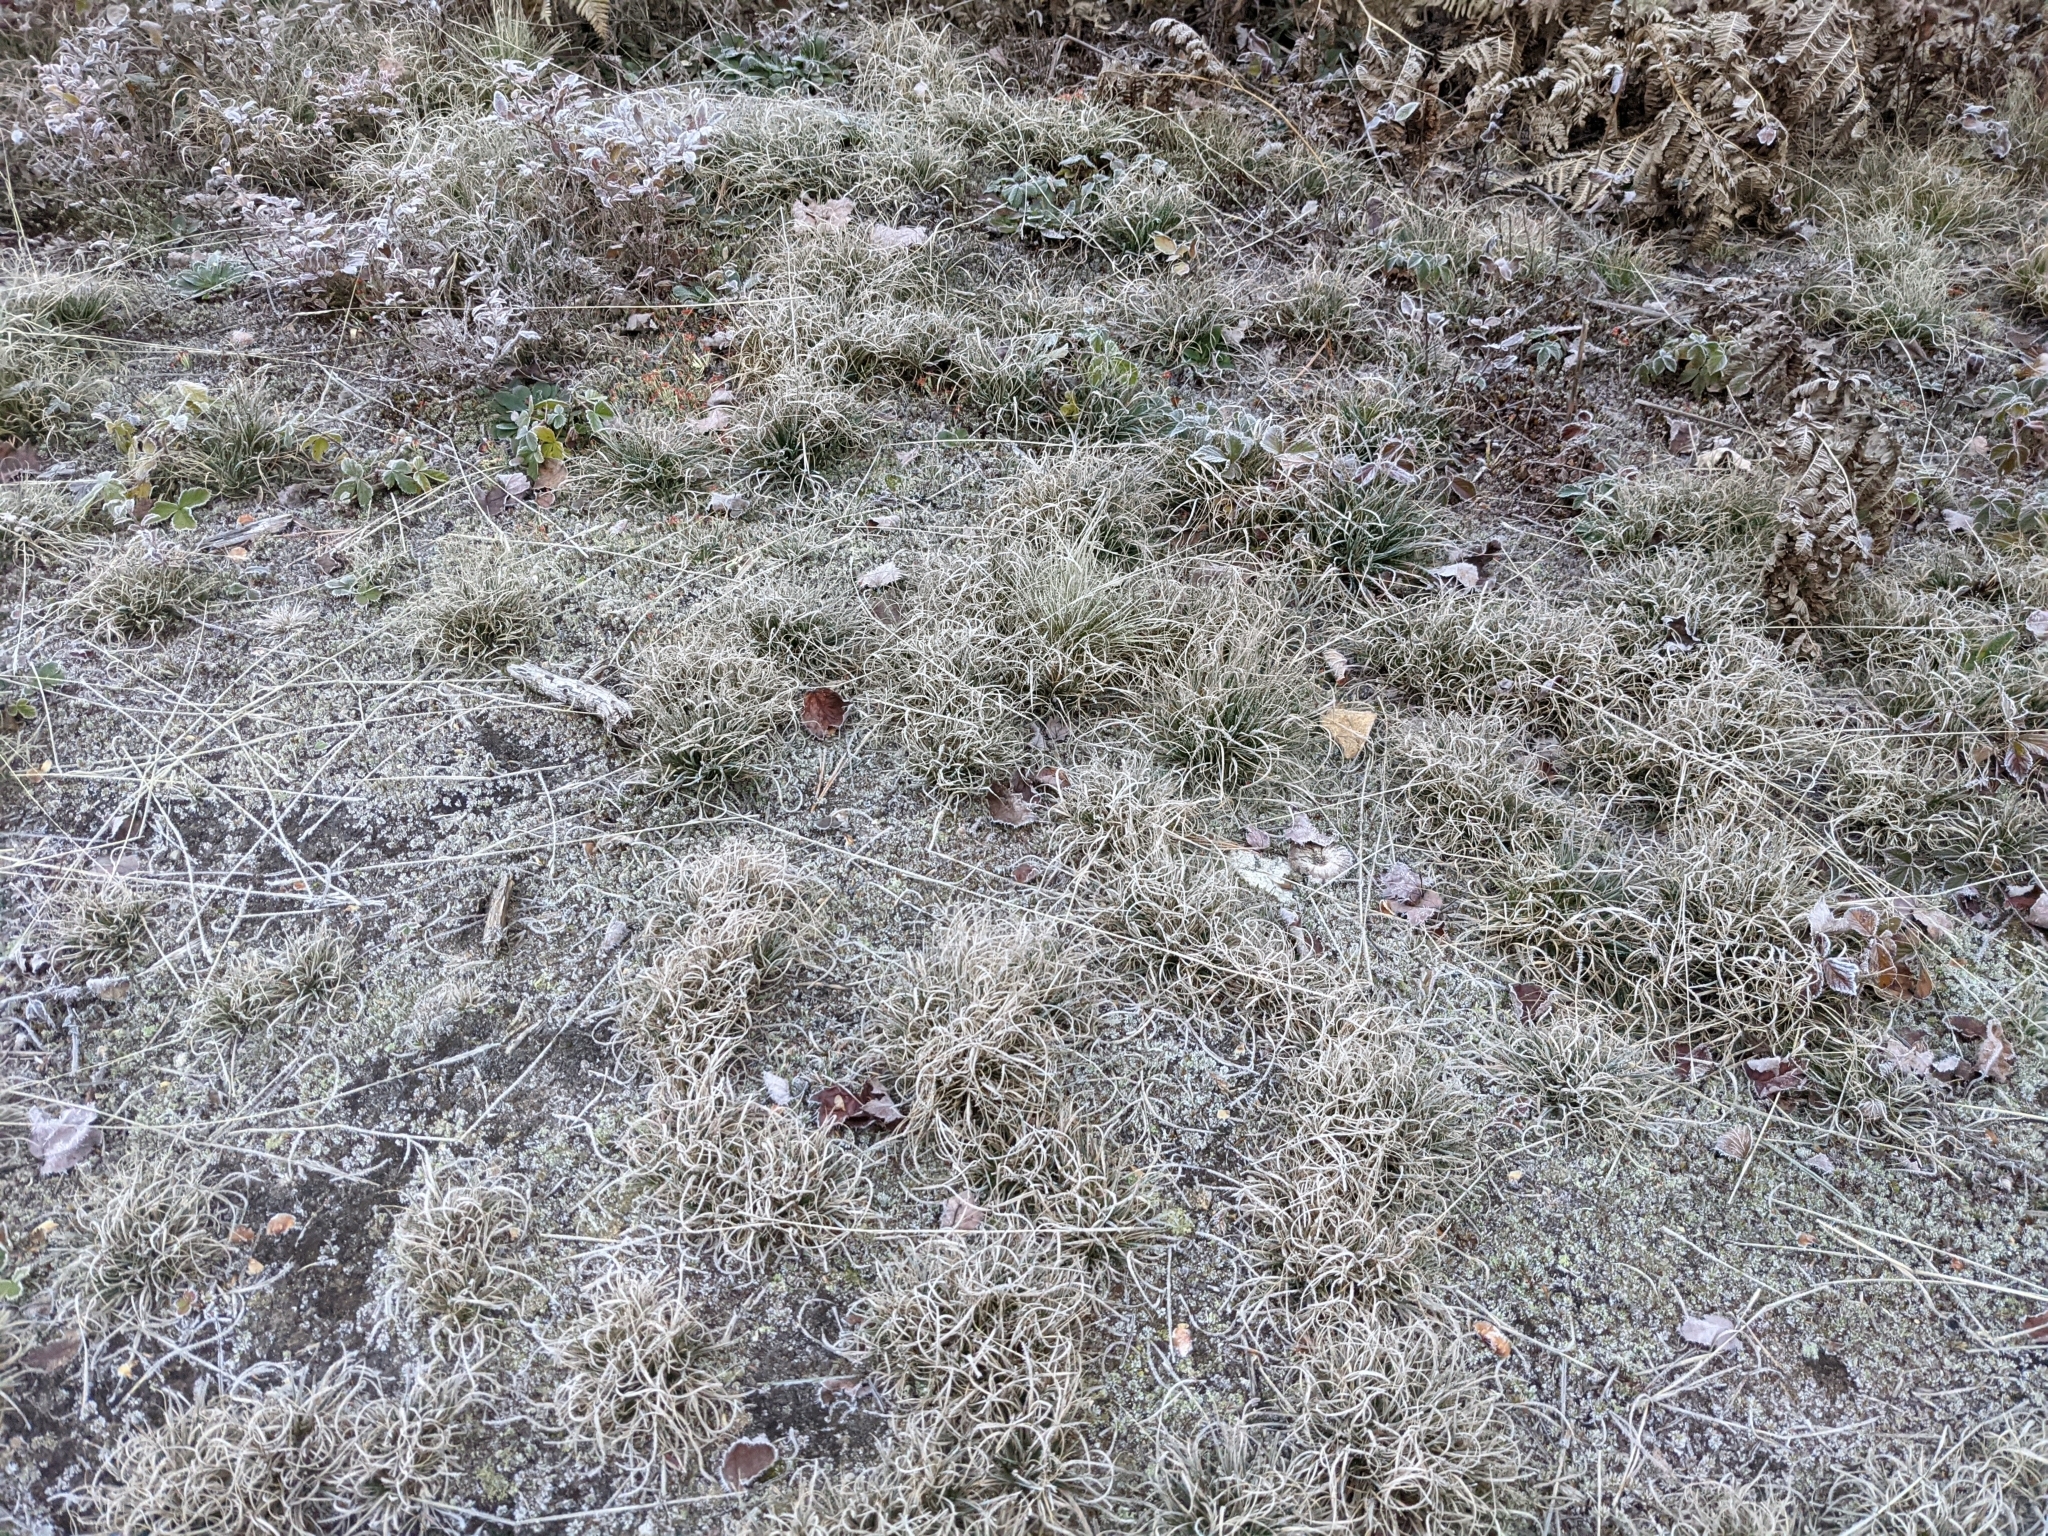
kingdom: Plantae
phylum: Tracheophyta
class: Liliopsida
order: Poales
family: Poaceae
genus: Danthonia
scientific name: Danthonia spicata
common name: Common wild oatgrass
